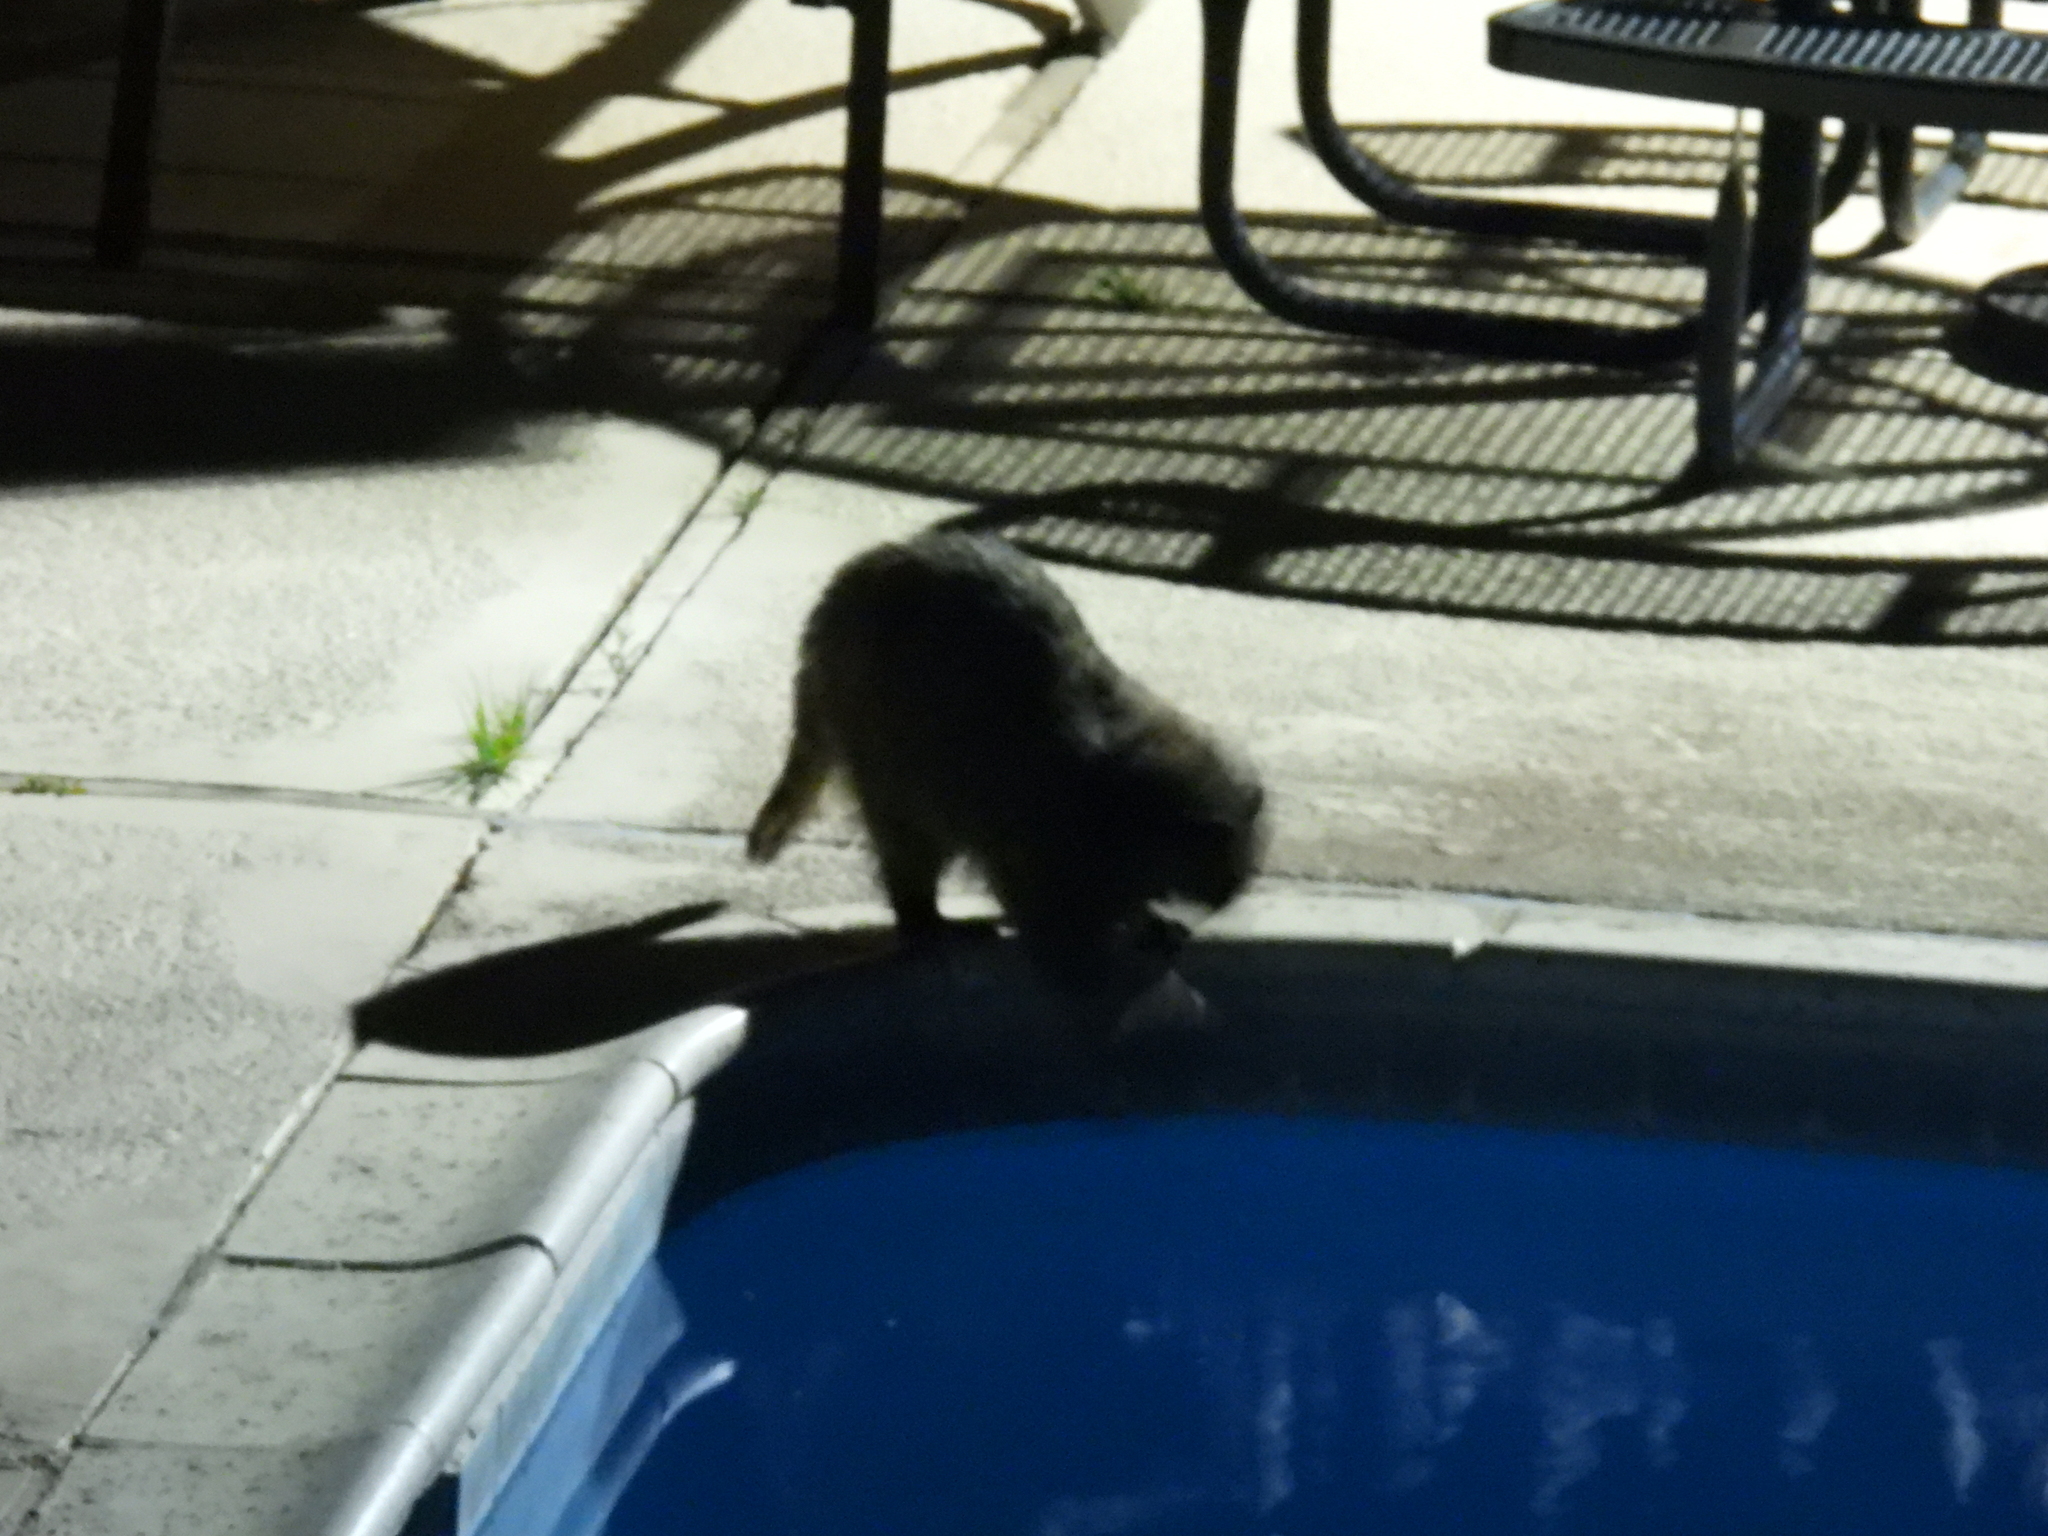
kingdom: Animalia
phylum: Chordata
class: Mammalia
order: Carnivora
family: Procyonidae
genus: Procyon
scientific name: Procyon lotor
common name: Raccoon
